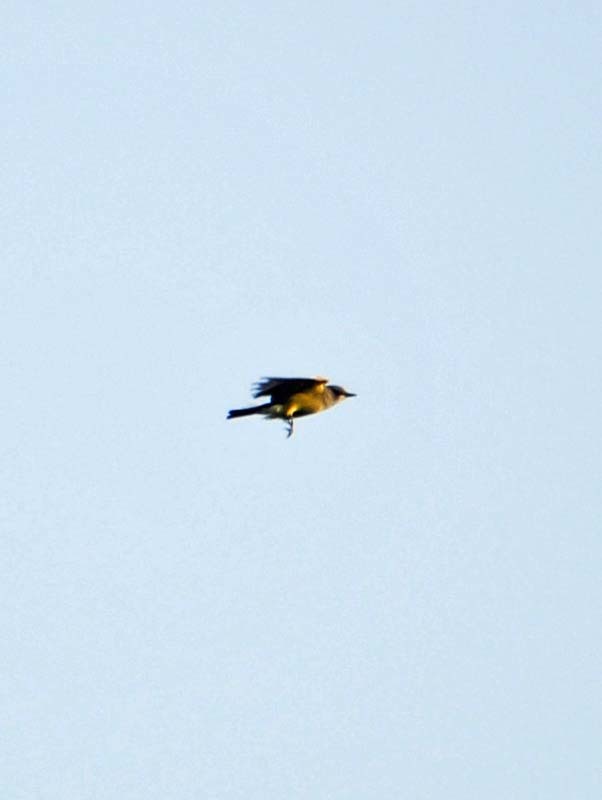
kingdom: Animalia
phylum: Chordata
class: Aves
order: Passeriformes
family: Tyrannidae
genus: Tyrannus
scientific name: Tyrannus vociferans
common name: Cassin's kingbird
